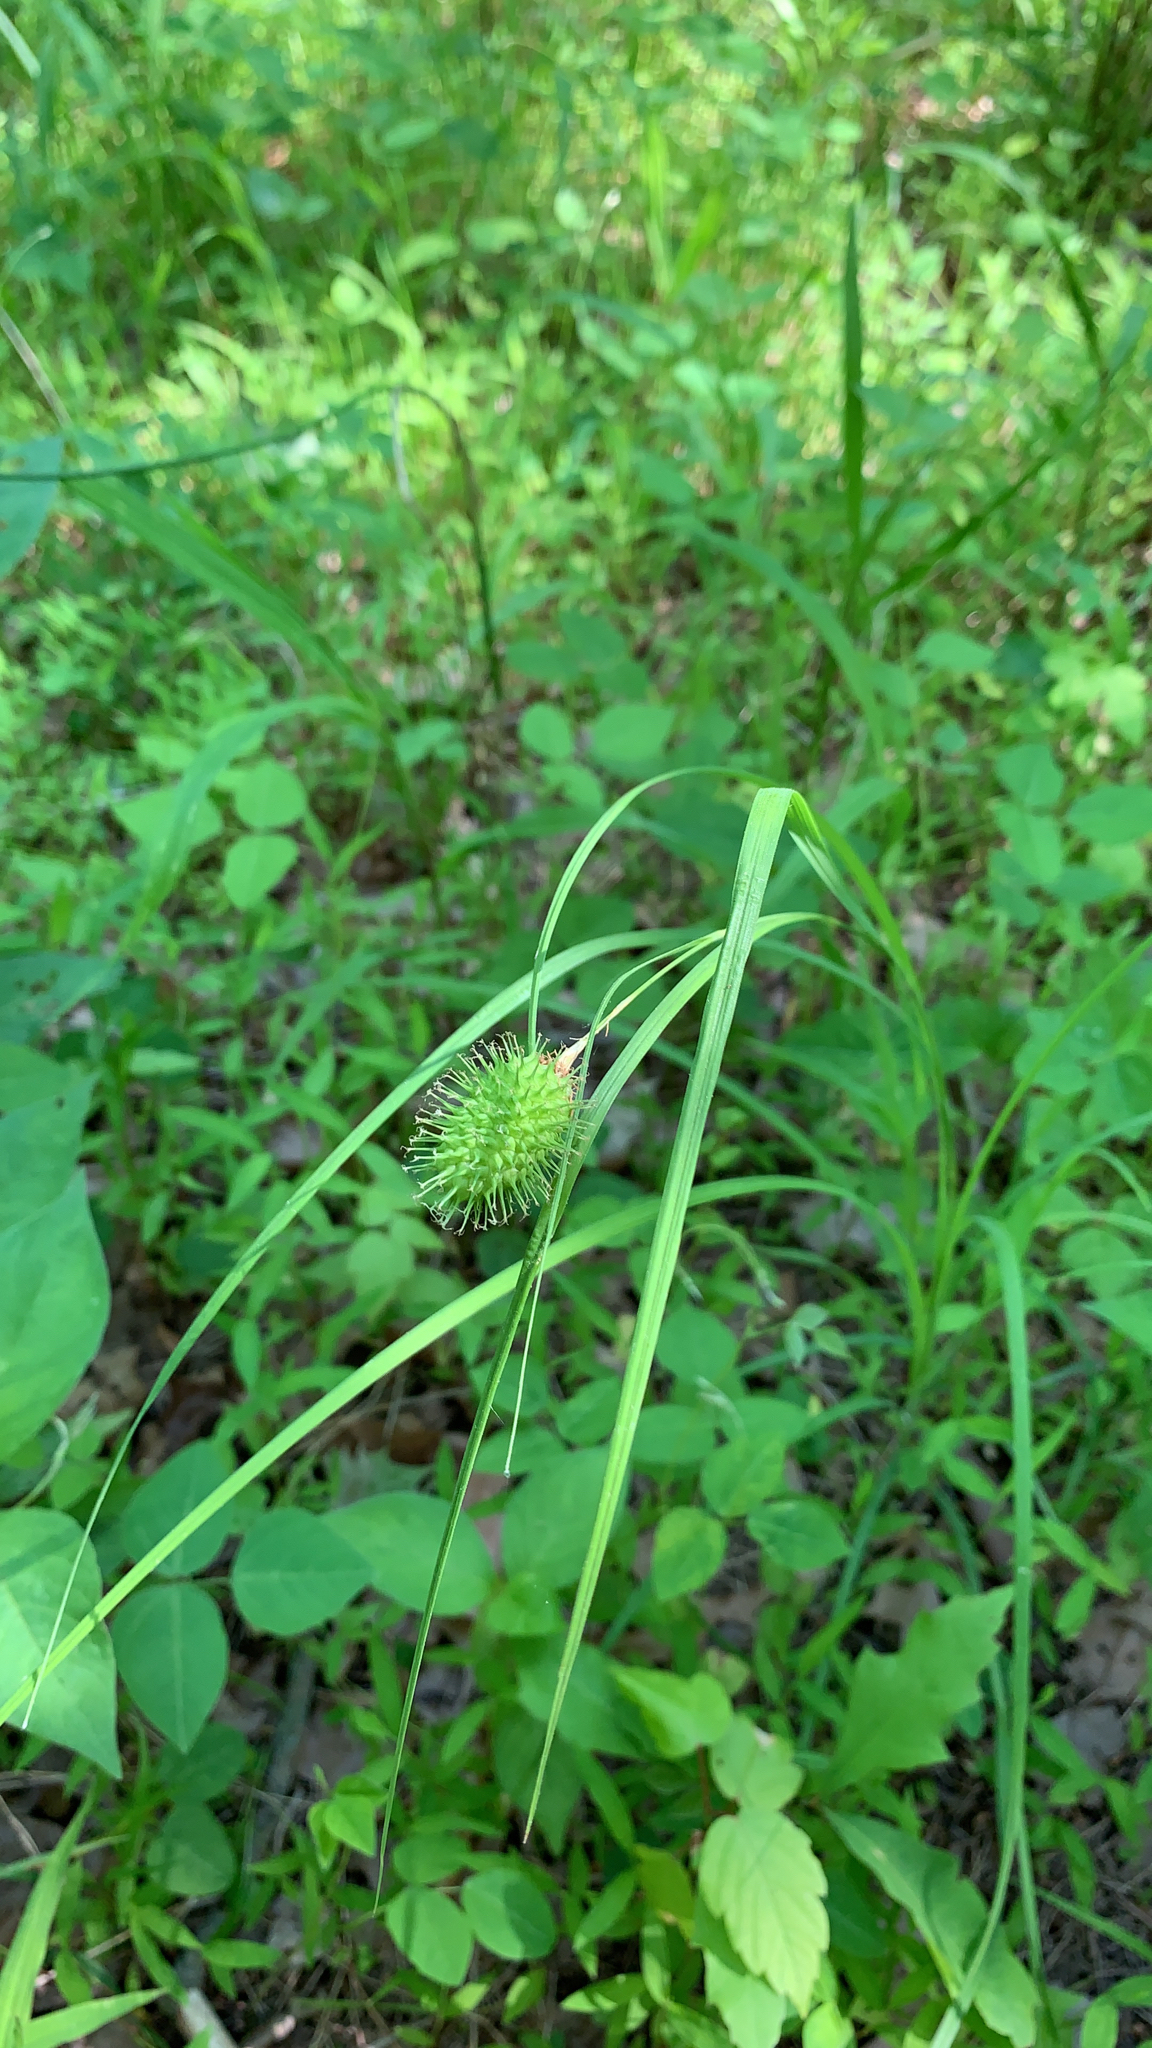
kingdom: Plantae
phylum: Tracheophyta
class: Liliopsida
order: Poales
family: Cyperaceae
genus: Carex
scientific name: Carex squarrosa
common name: Narrow-leaved cattail sedge
